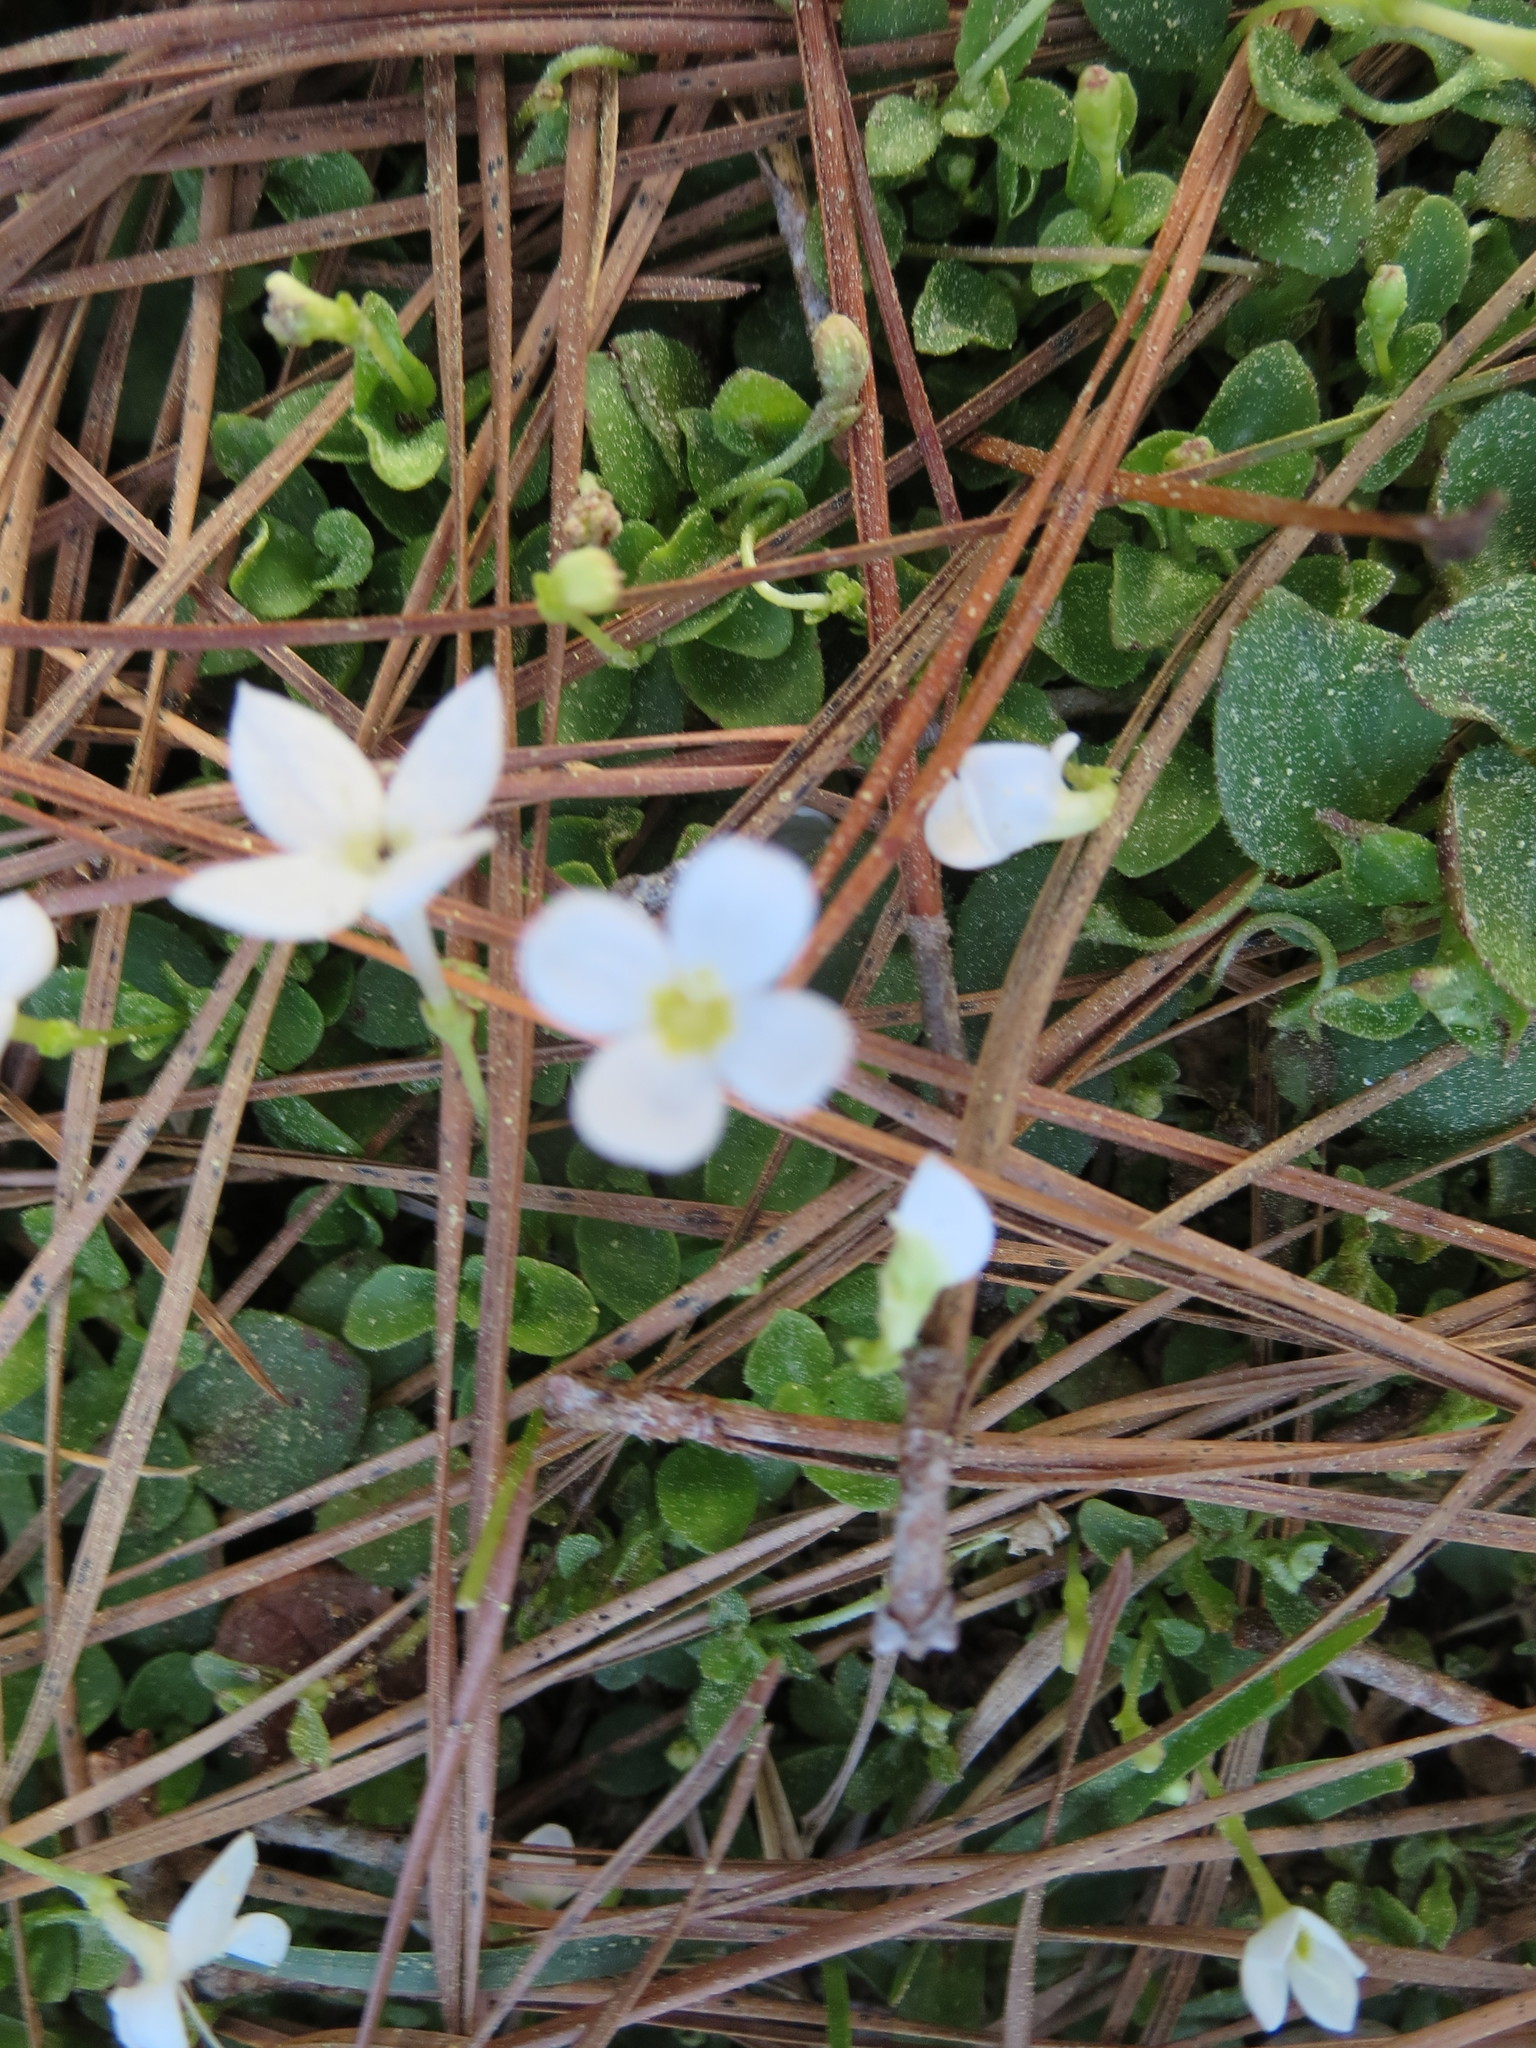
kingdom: Plantae
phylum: Tracheophyta
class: Magnoliopsida
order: Gentianales
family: Rubiaceae
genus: Houstonia
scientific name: Houstonia procumbens
